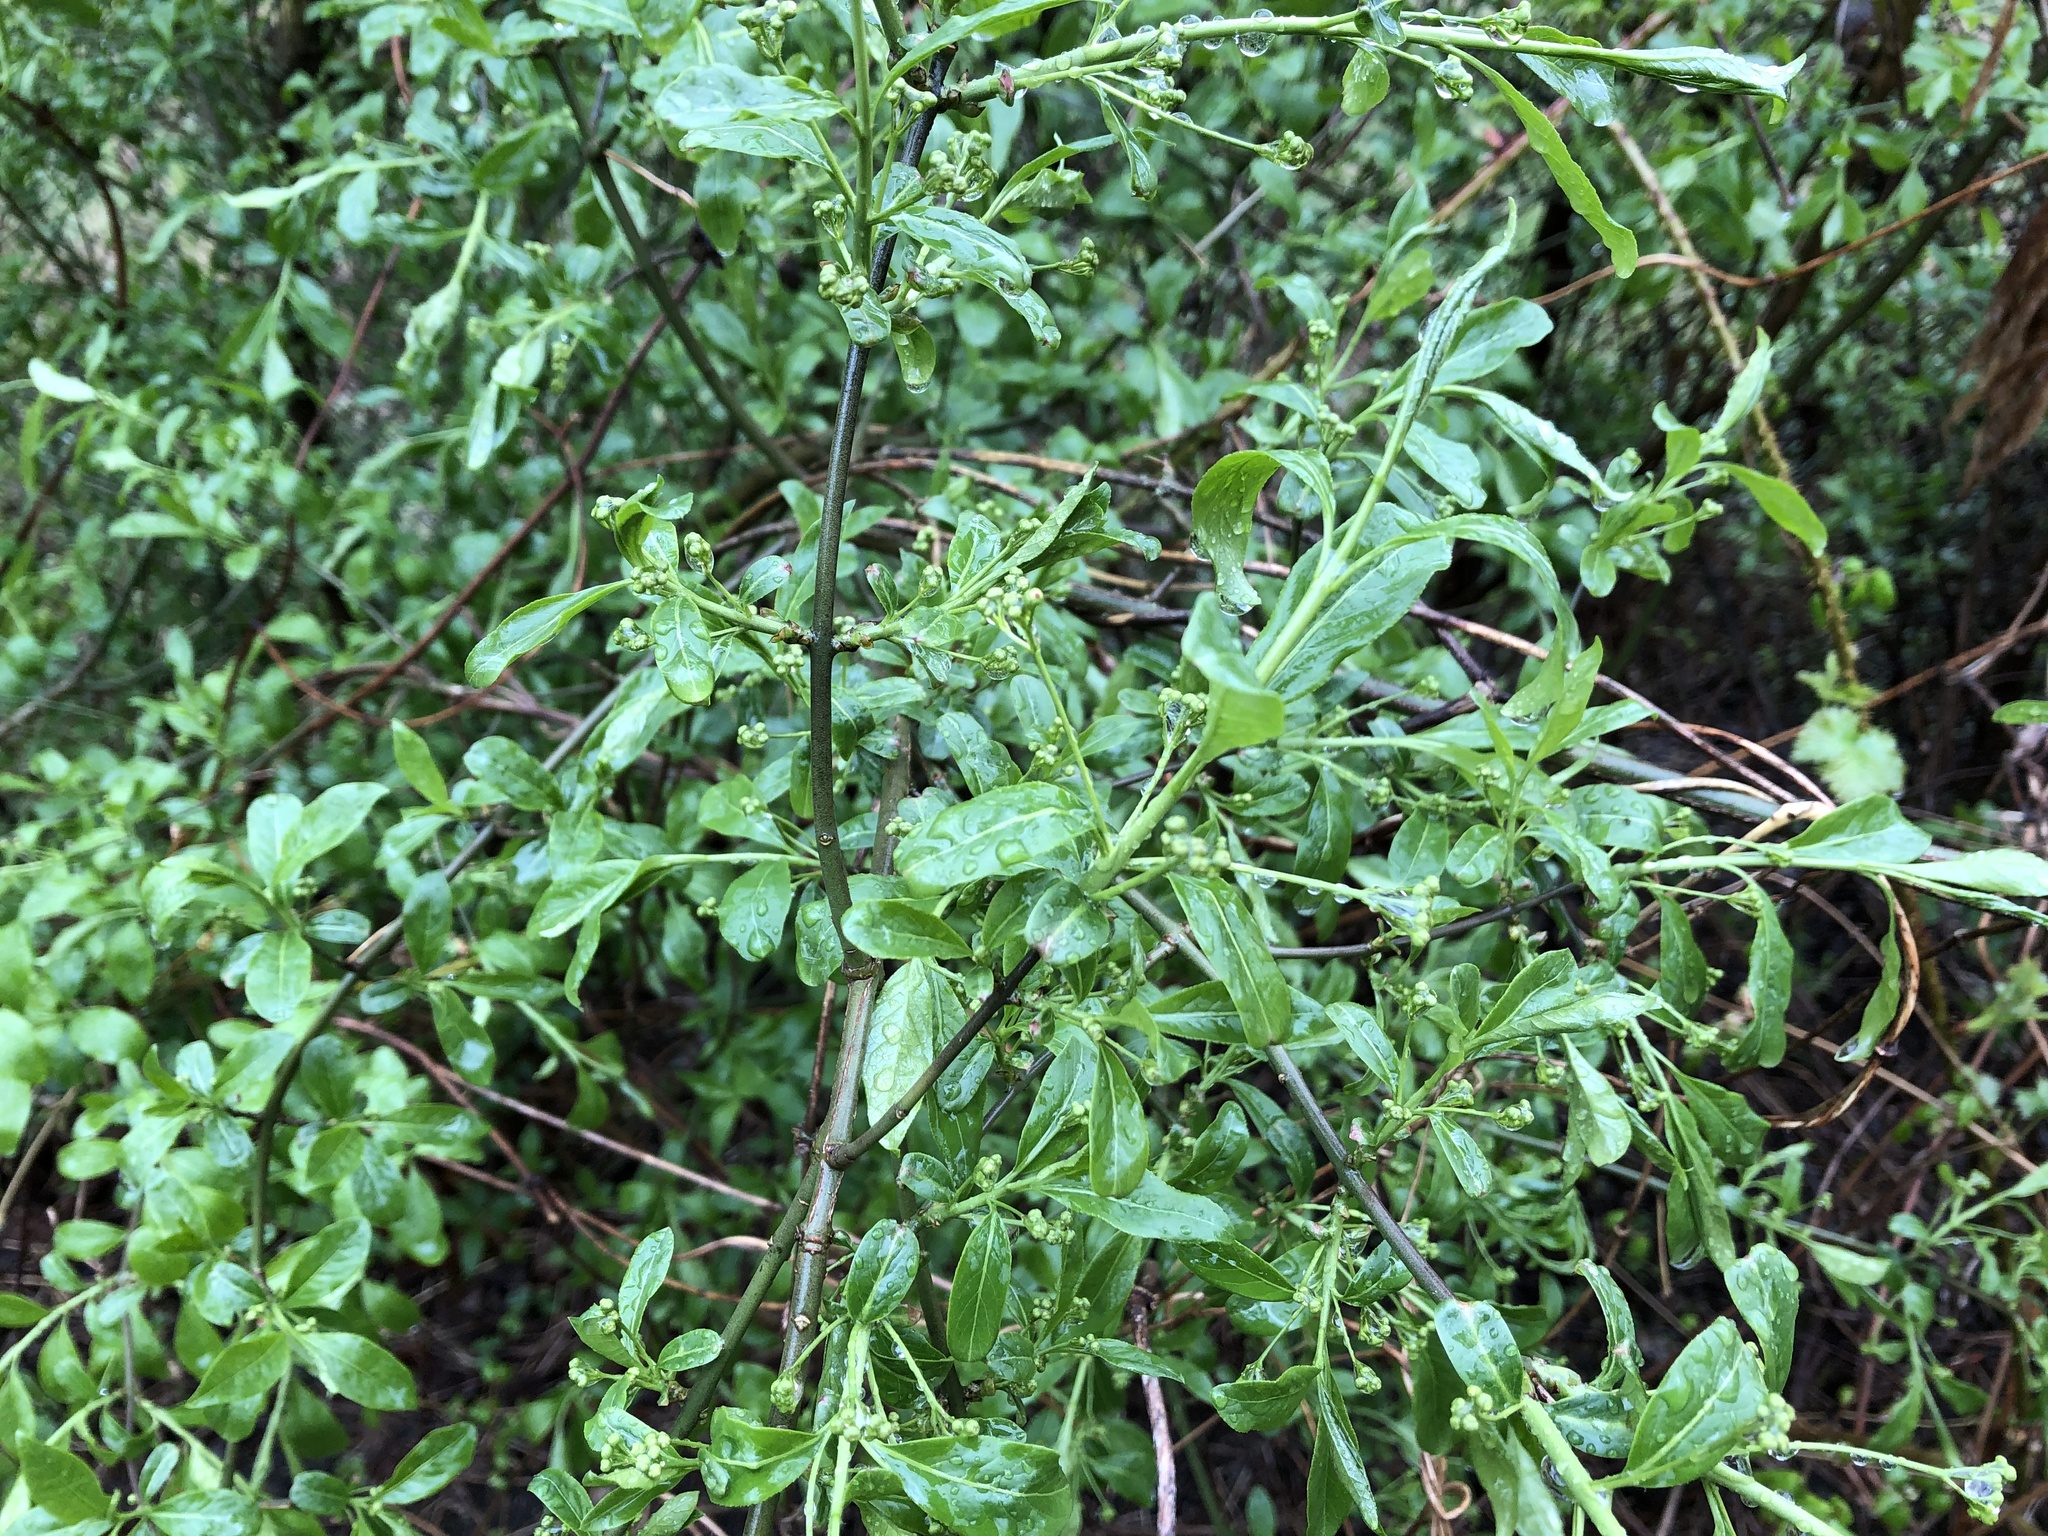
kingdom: Plantae
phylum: Tracheophyta
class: Magnoliopsida
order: Celastrales
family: Celastraceae
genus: Euonymus
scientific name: Euonymus europaeus
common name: Spindle
